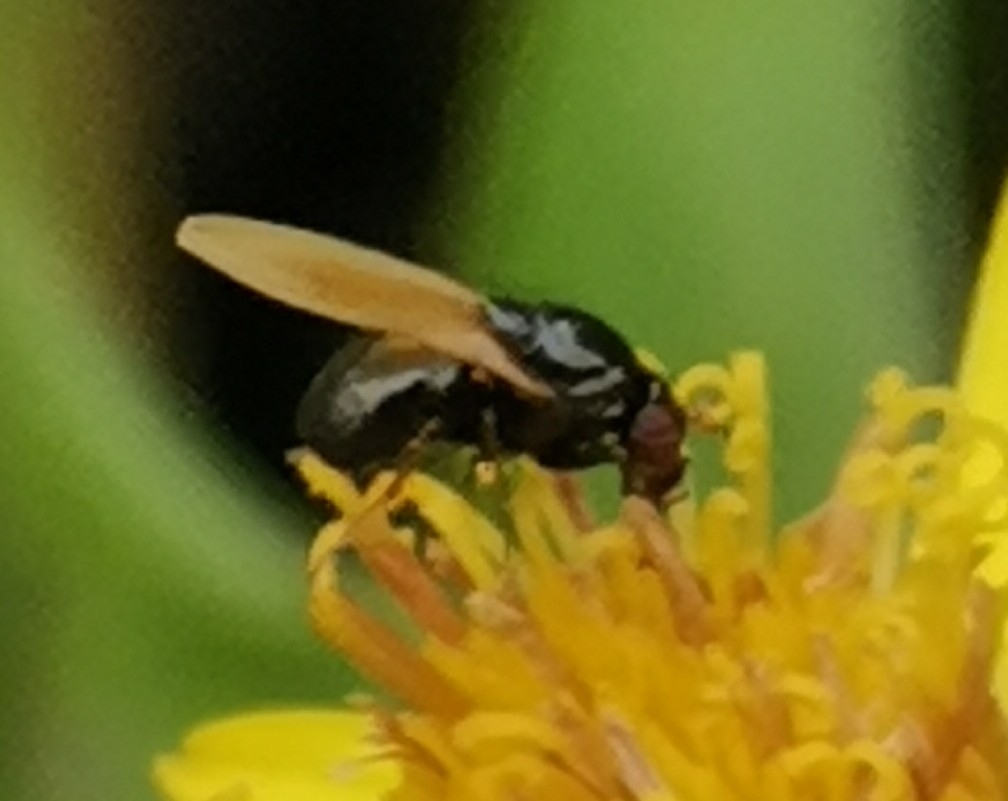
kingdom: Animalia
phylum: Arthropoda
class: Insecta
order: Diptera
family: Lauxaniidae
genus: Lauxania
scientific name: Lauxania cylindricornis
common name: Sapromyzid fly
